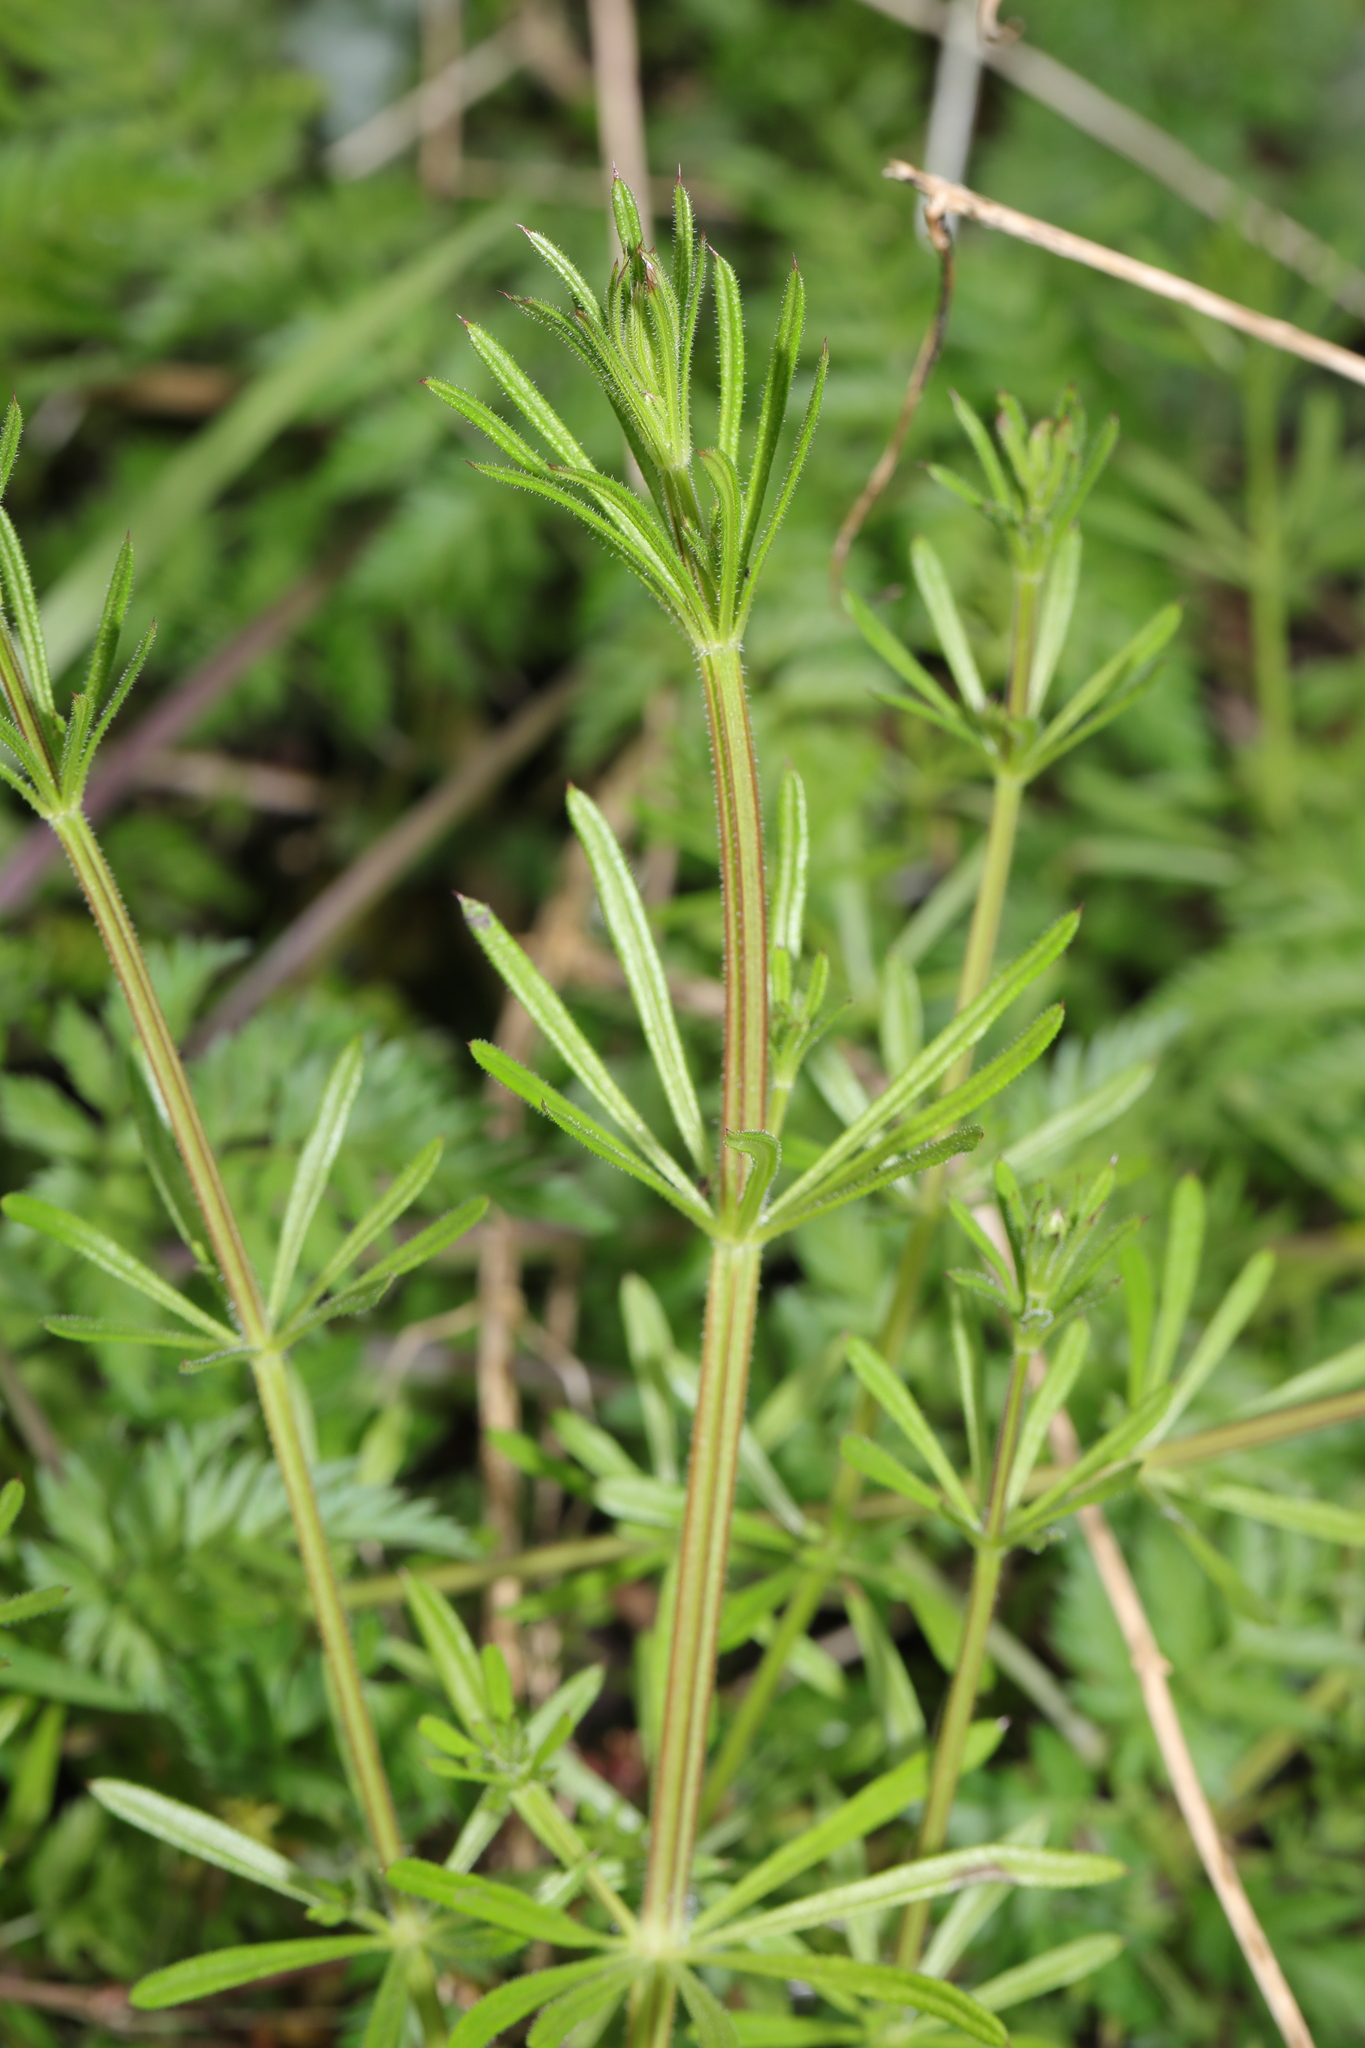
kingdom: Plantae
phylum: Tracheophyta
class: Magnoliopsida
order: Gentianales
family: Rubiaceae
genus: Galium
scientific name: Galium aparine
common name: Cleavers
